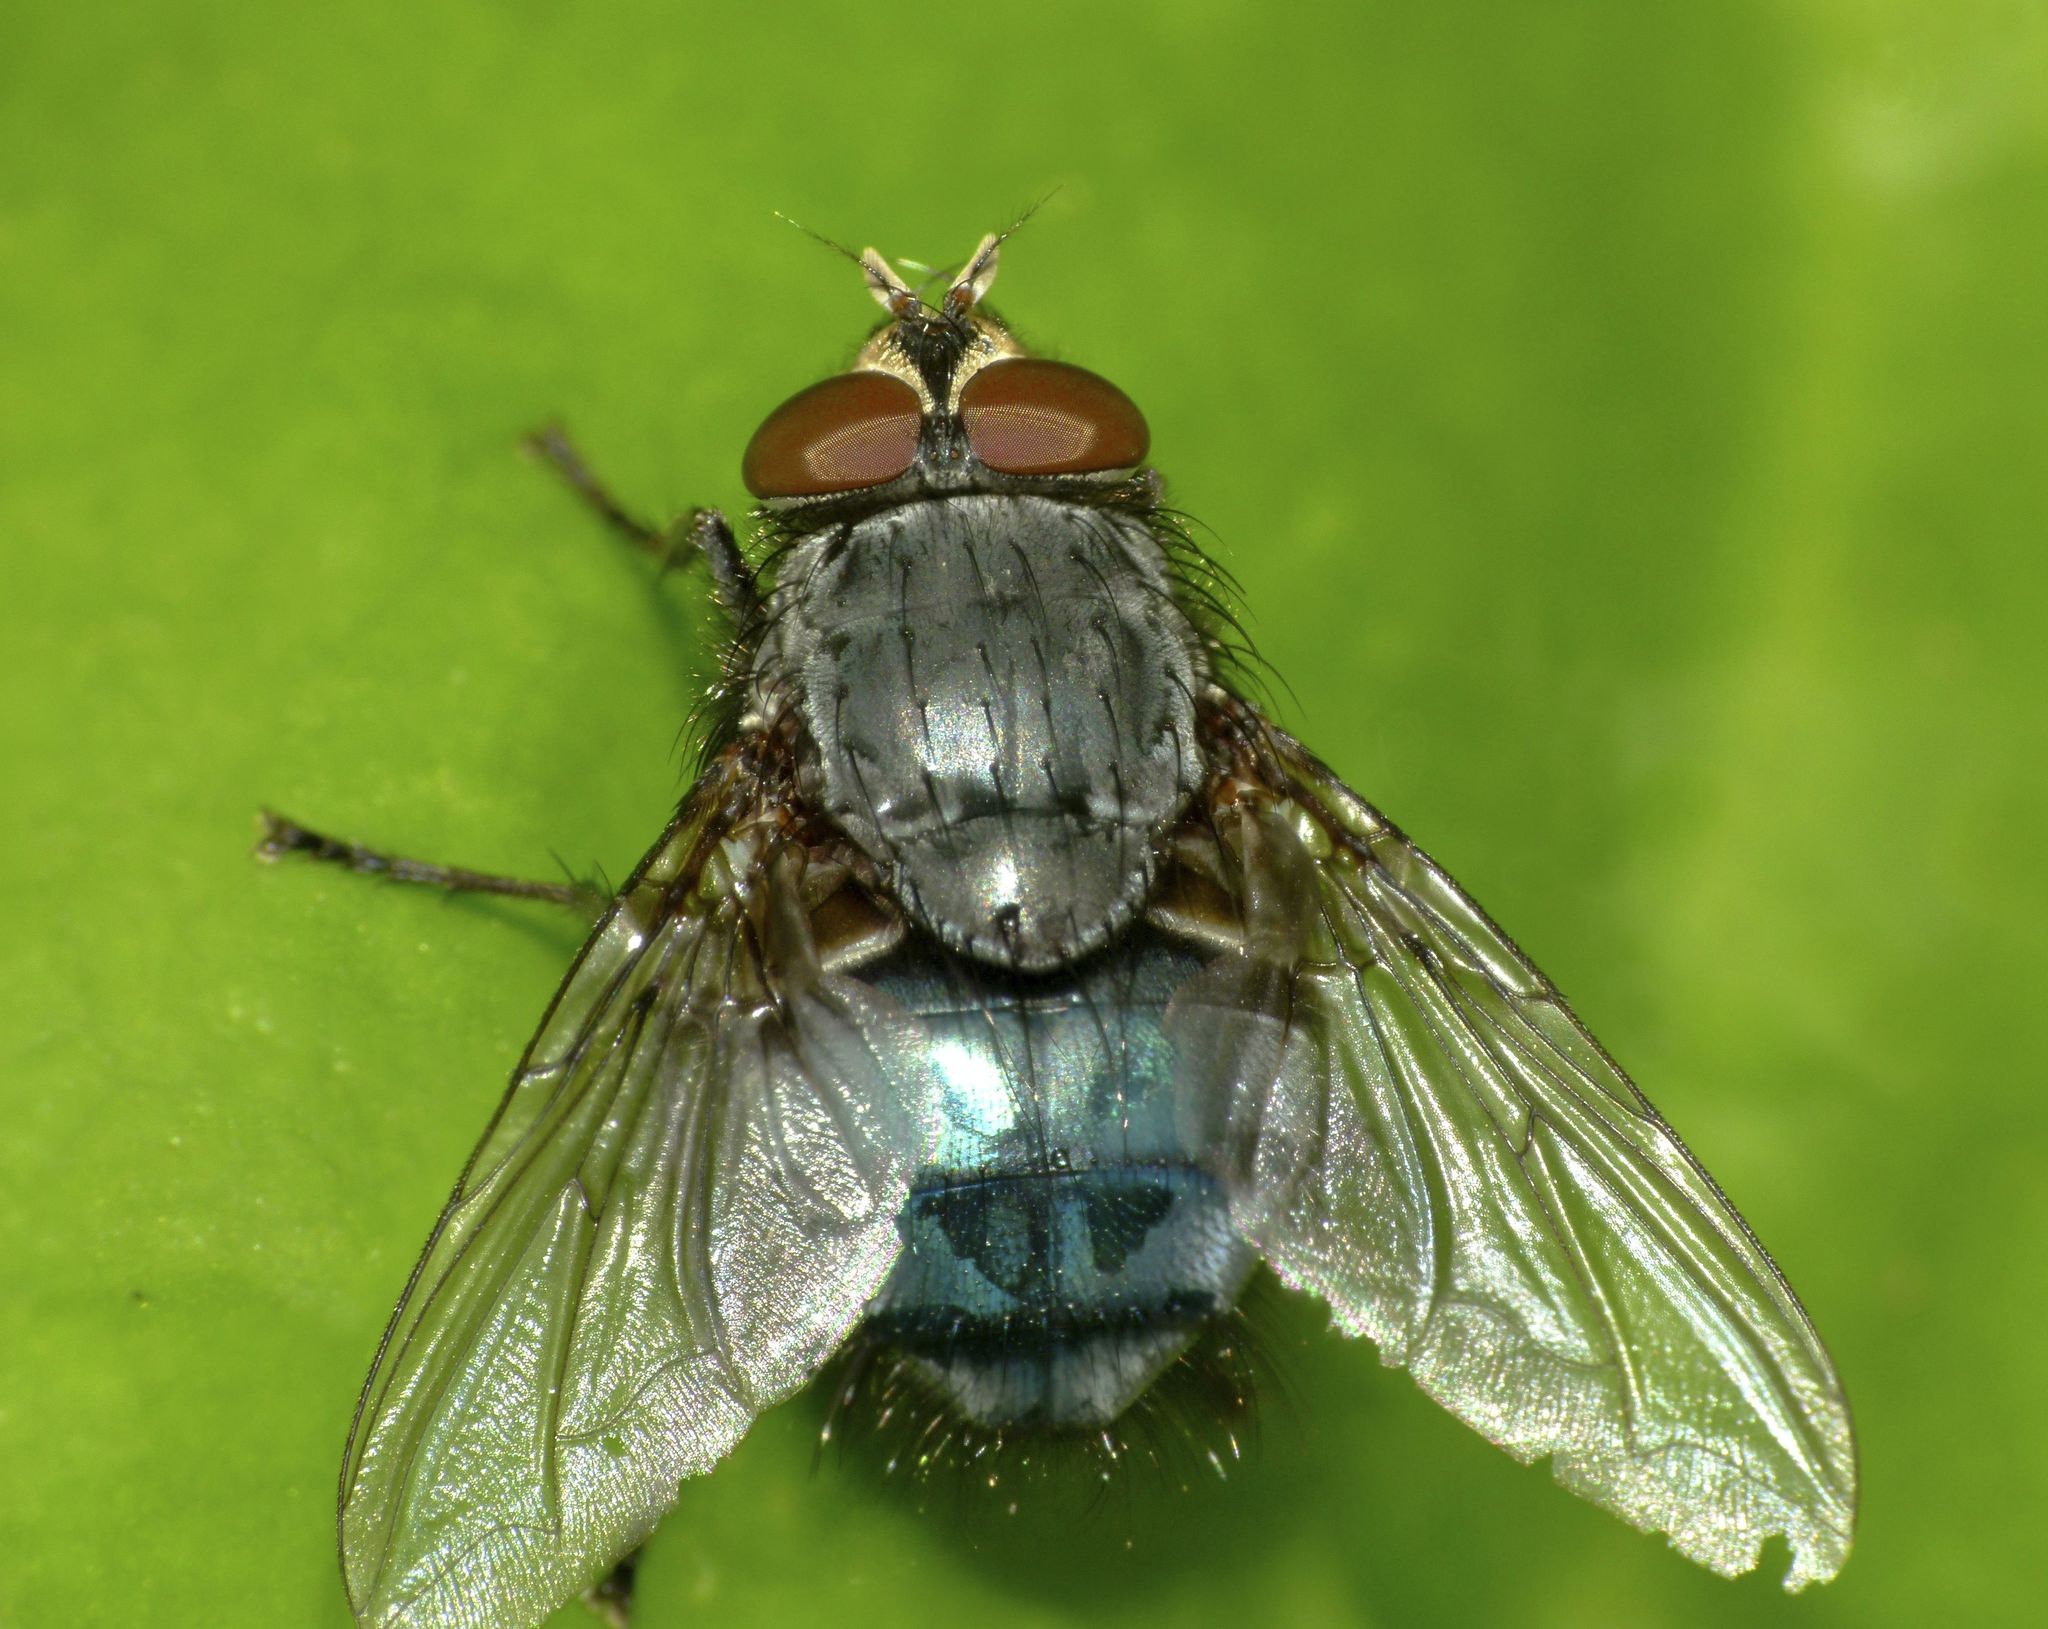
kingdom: Animalia
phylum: Arthropoda
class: Insecta
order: Diptera
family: Calliphoridae
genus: Calliphora
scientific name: Calliphora vicina
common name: Common blow flie
